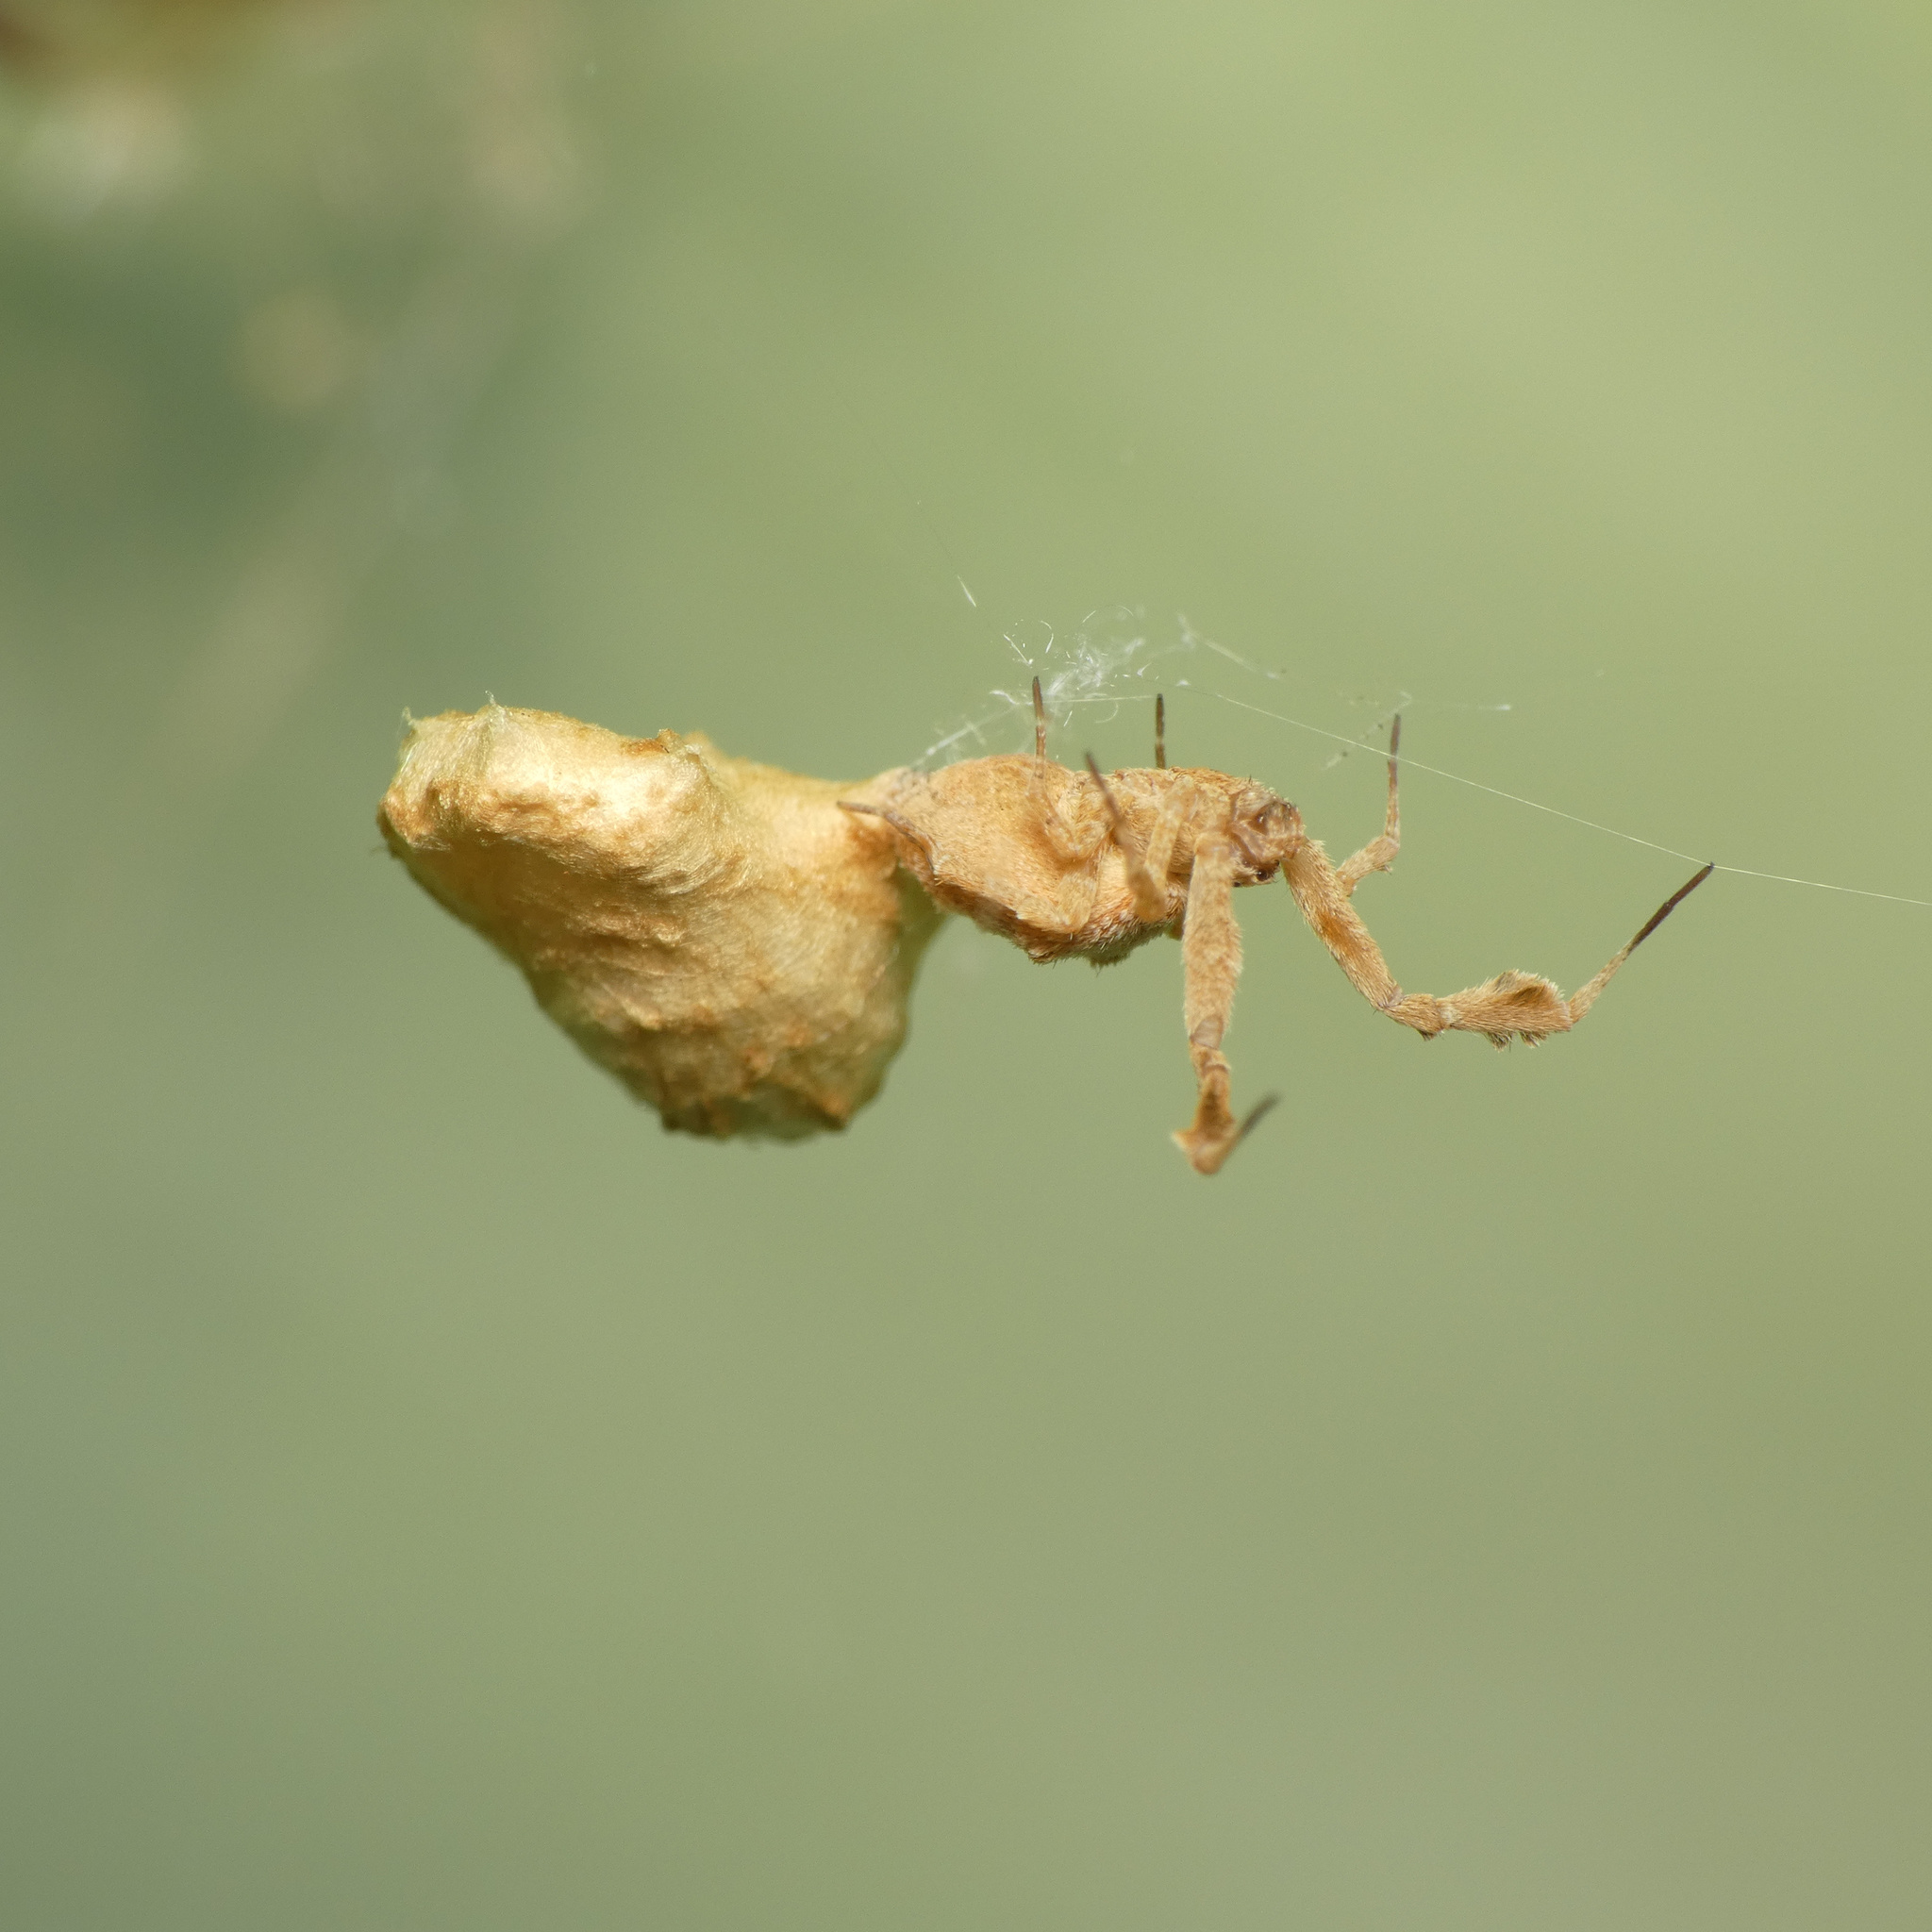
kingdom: Animalia
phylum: Arthropoda
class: Arachnida
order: Araneae
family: Uloboridae
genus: Uloborus
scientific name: Uloborus plumipes
